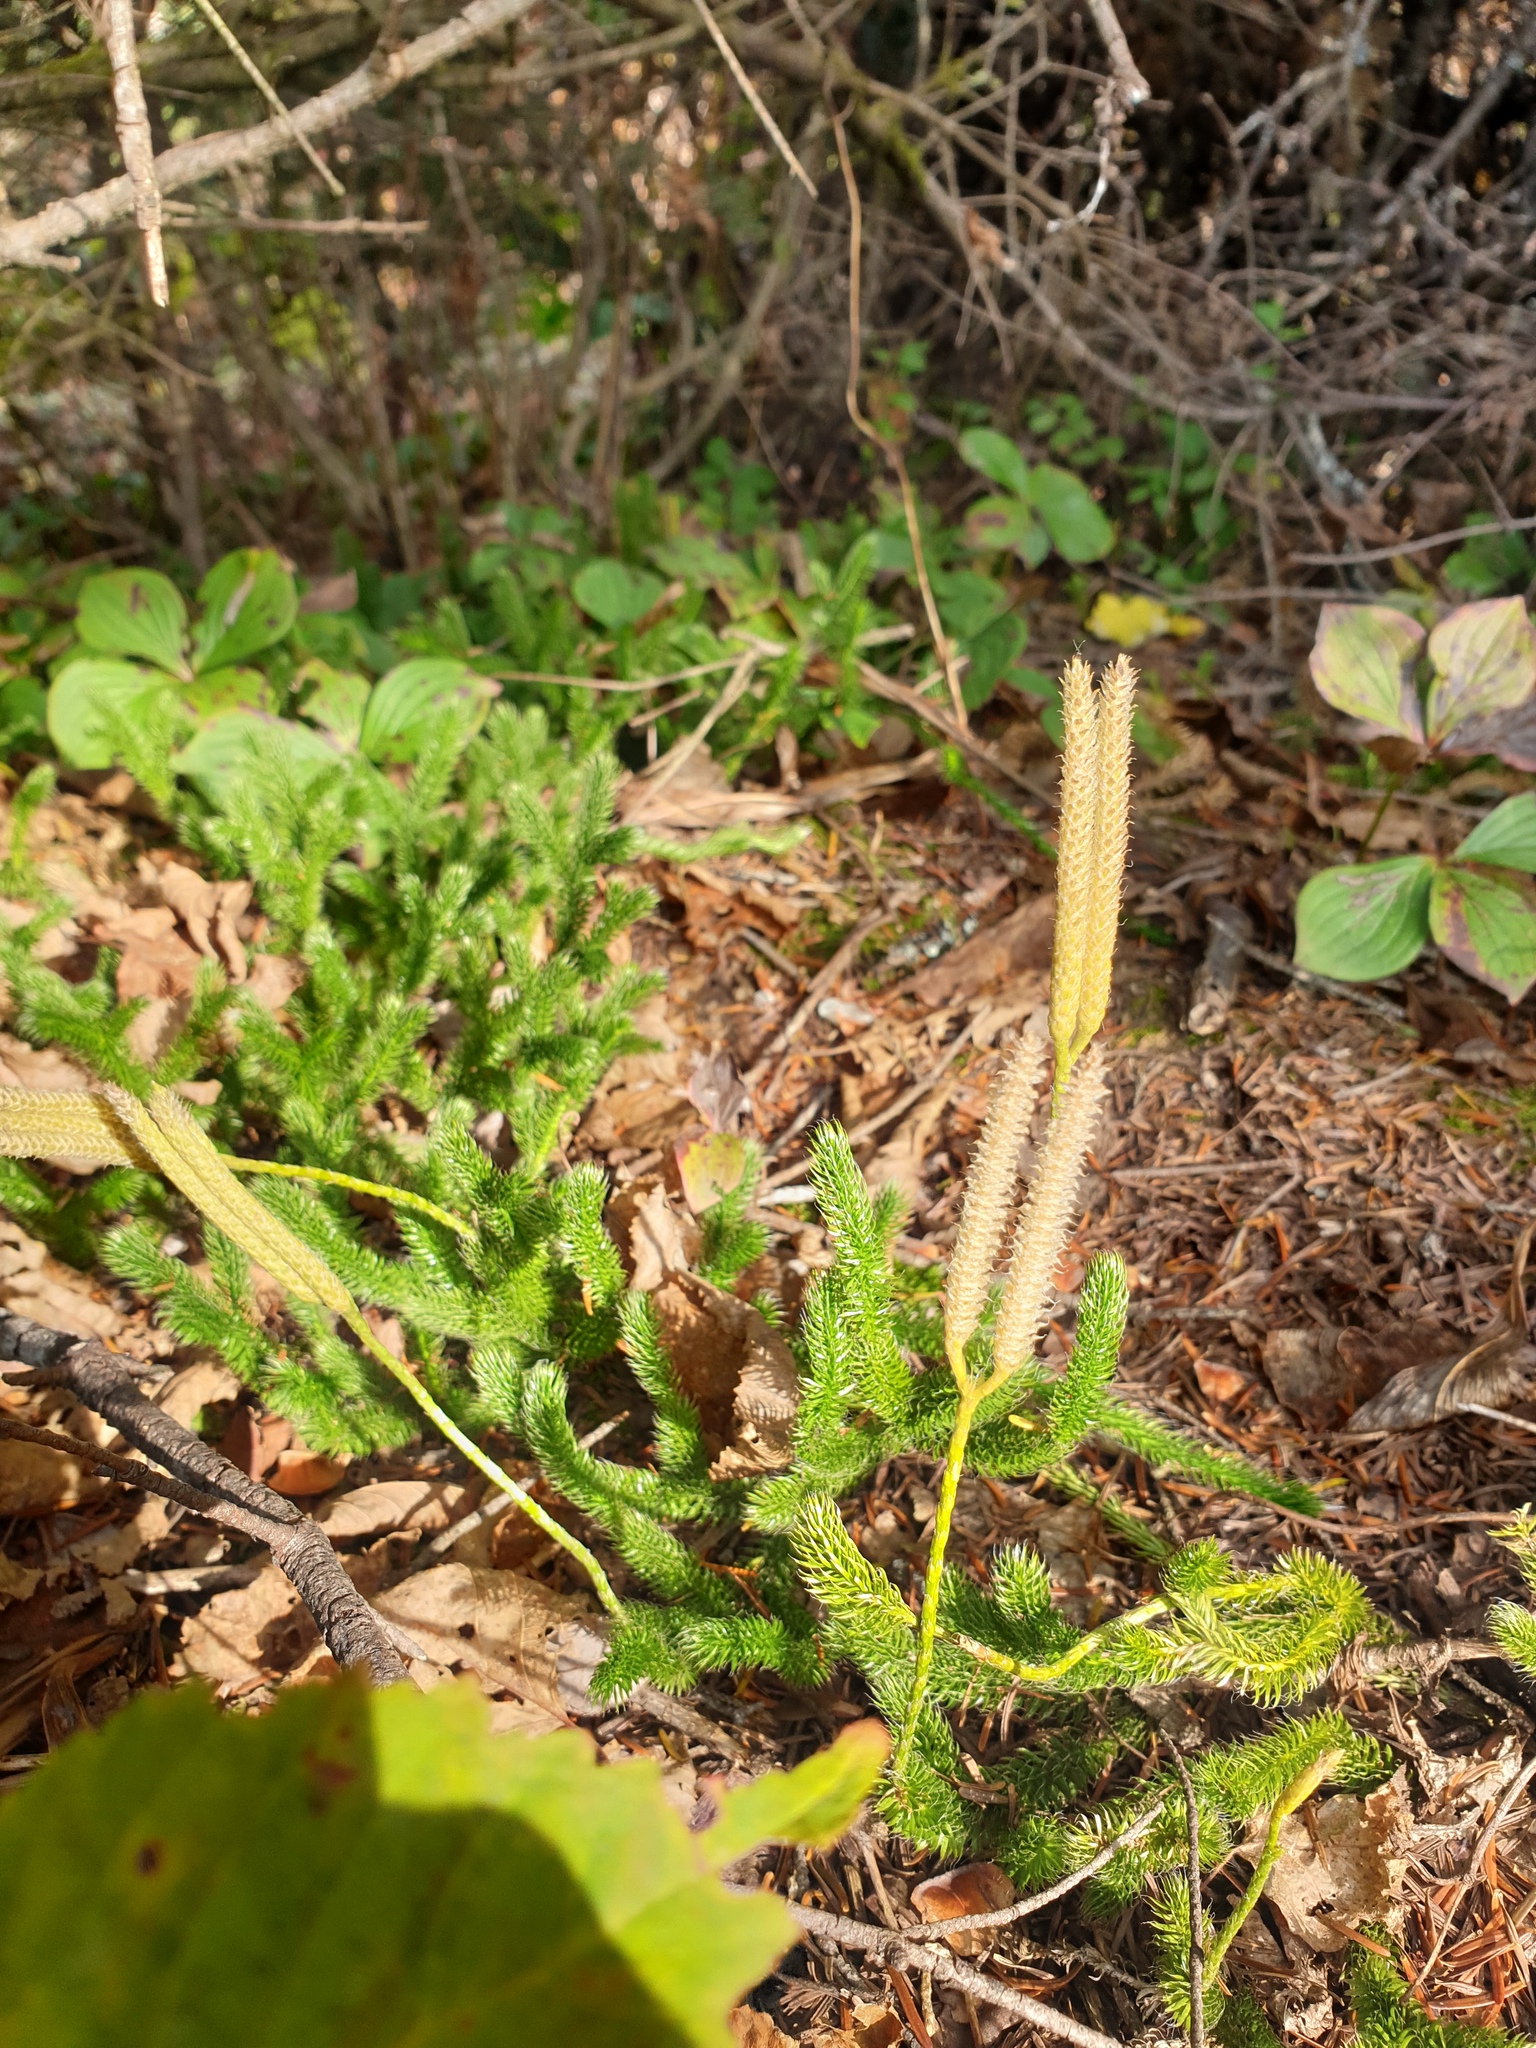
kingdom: Plantae
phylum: Tracheophyta
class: Lycopodiopsida
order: Lycopodiales
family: Lycopodiaceae
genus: Lycopodium
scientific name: Lycopodium clavatum
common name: Stag's-horn clubmoss
